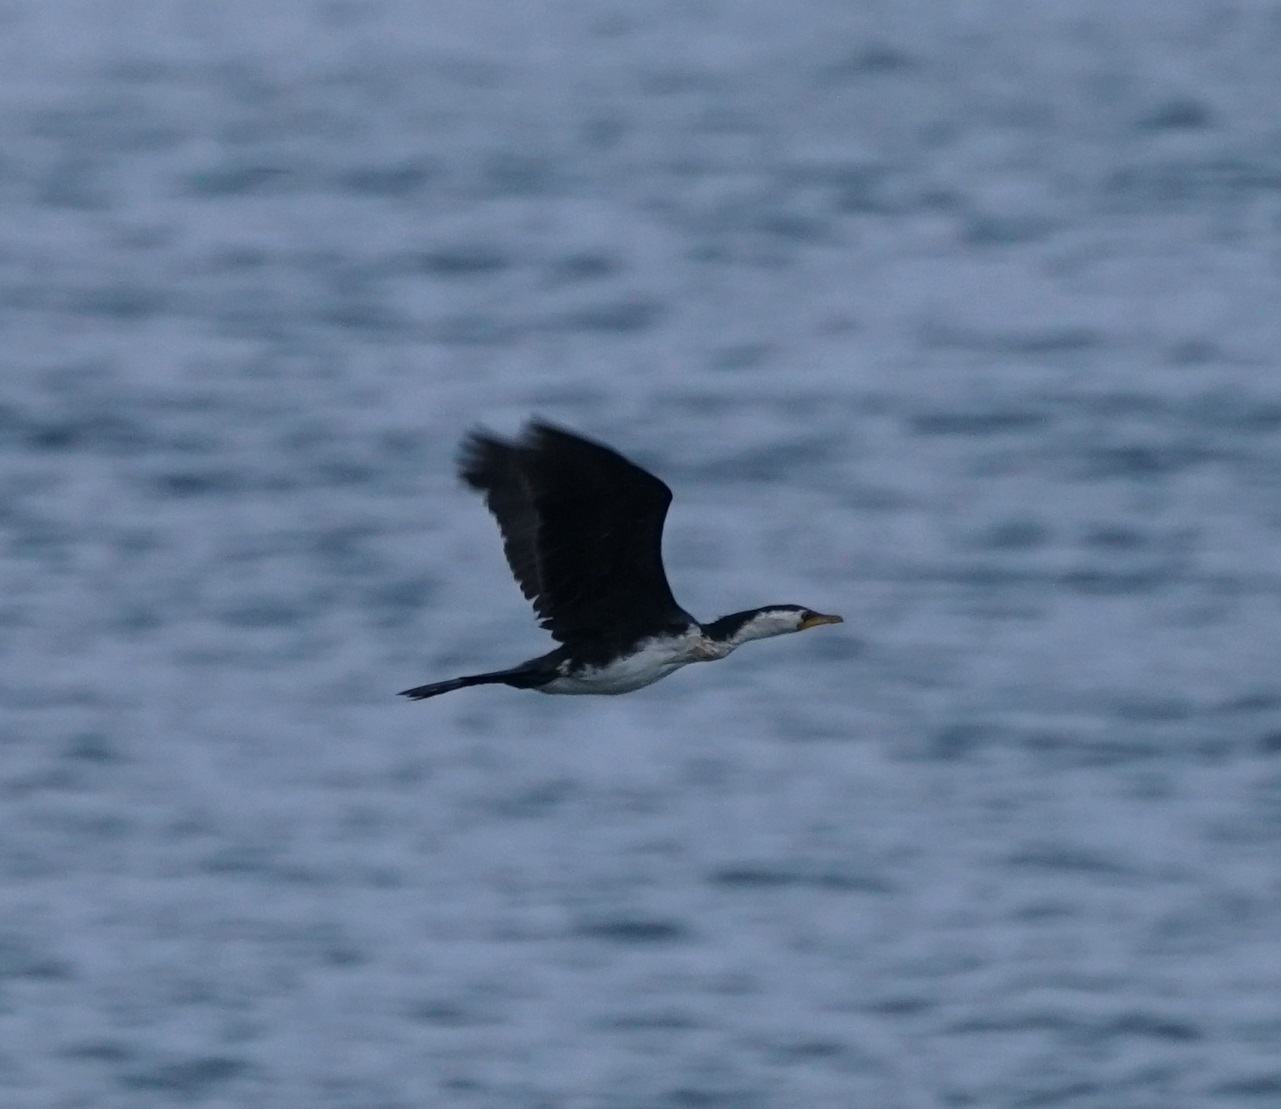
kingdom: Animalia
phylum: Chordata
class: Aves
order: Suliformes
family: Phalacrocoracidae
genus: Microcarbo
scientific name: Microcarbo melanoleucos
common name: Little pied cormorant
